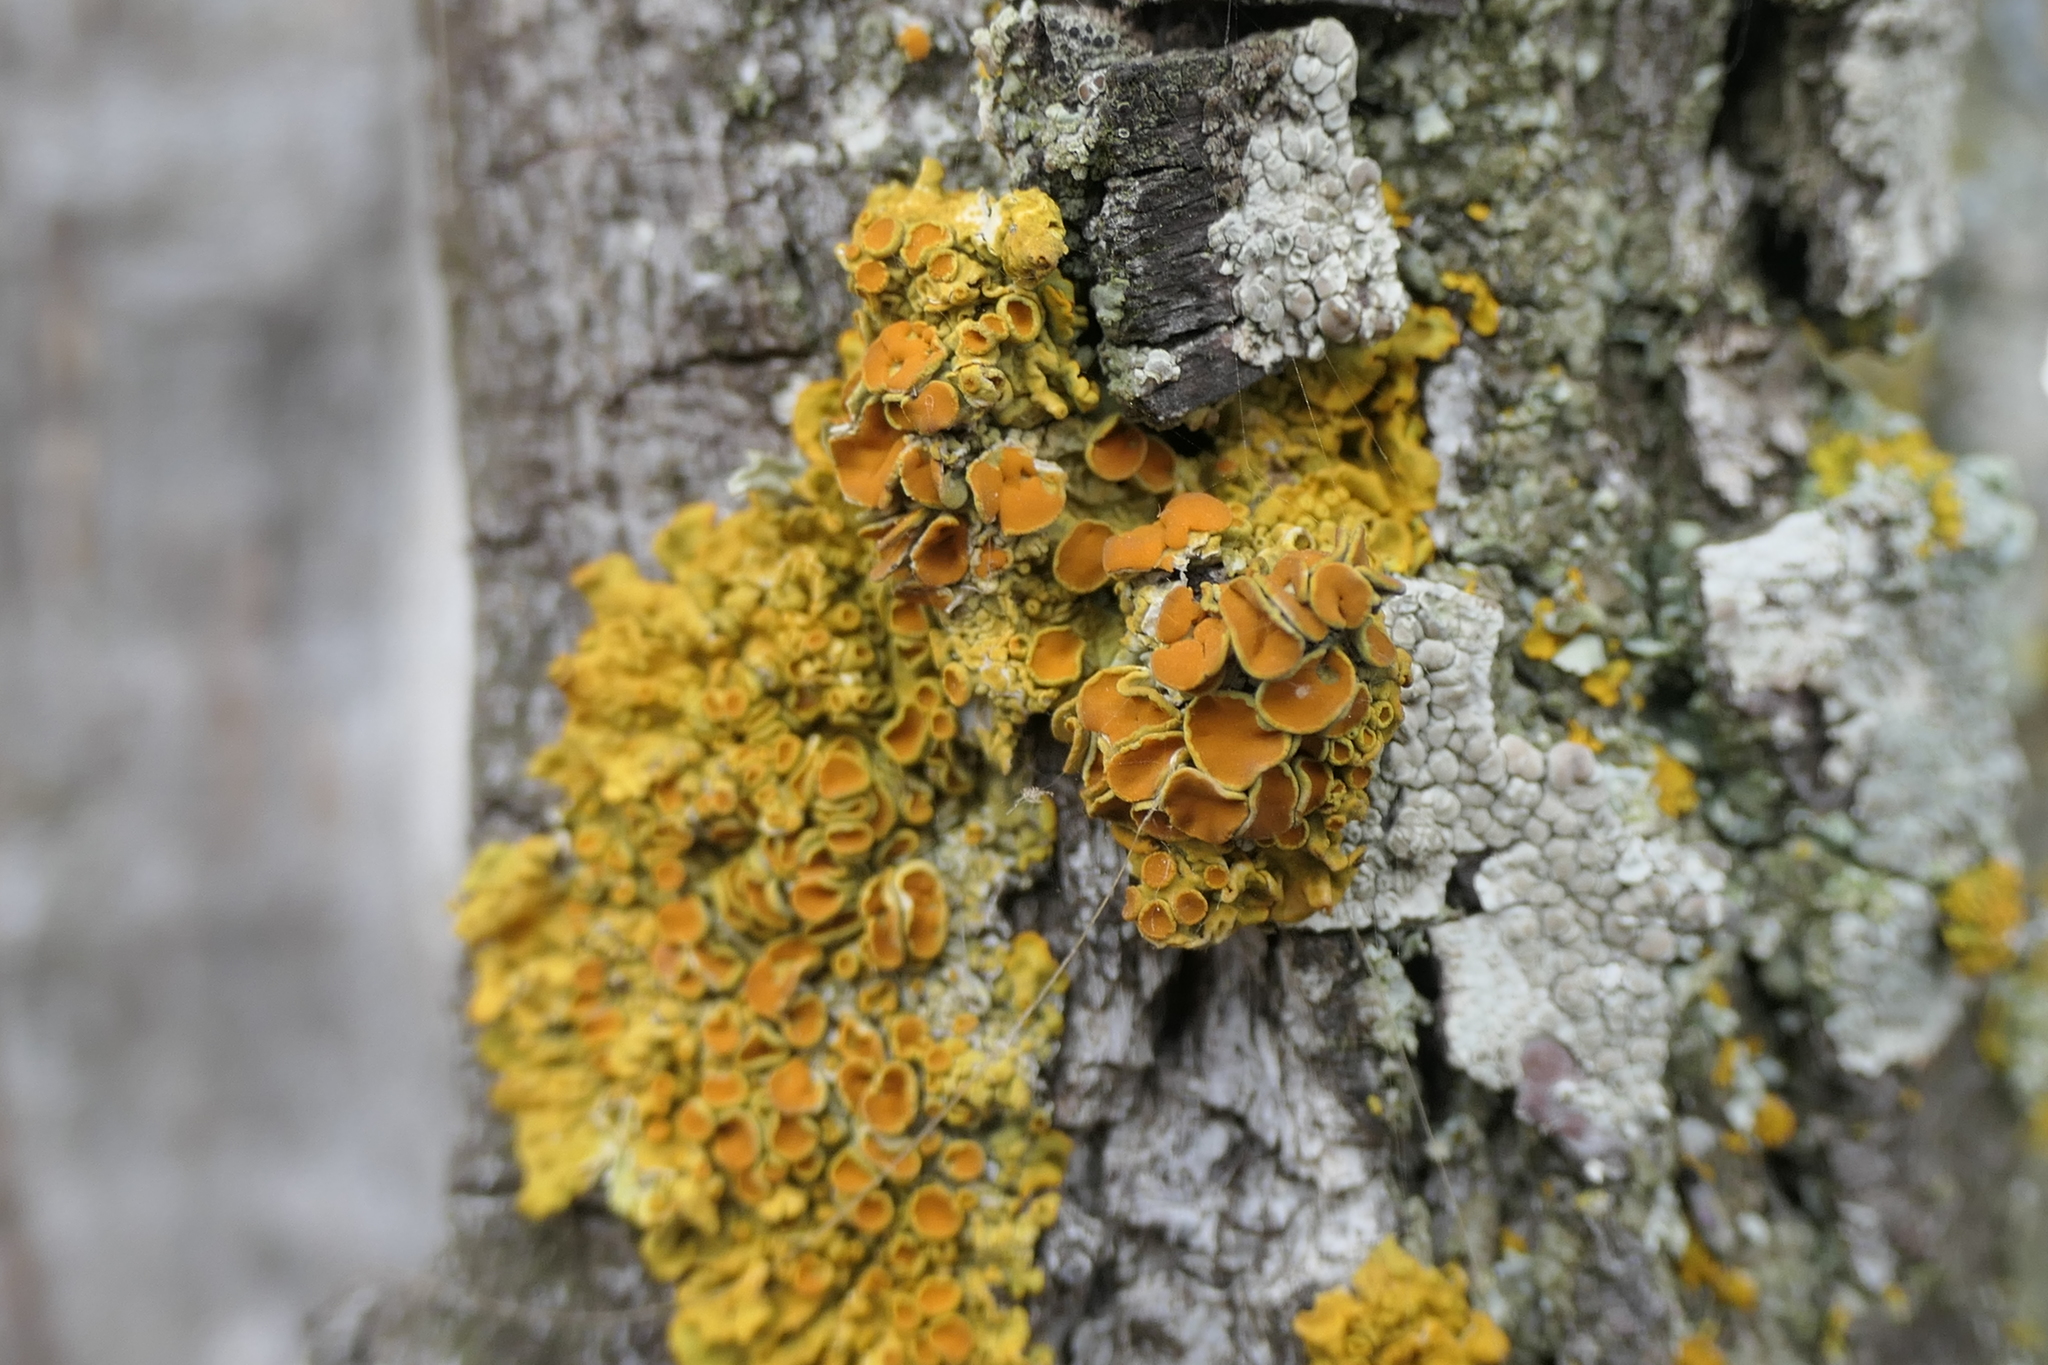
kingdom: Fungi
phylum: Ascomycota
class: Lecanoromycetes
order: Teloschistales
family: Teloschistaceae
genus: Xanthoria
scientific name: Xanthoria parietina
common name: Common orange lichen
